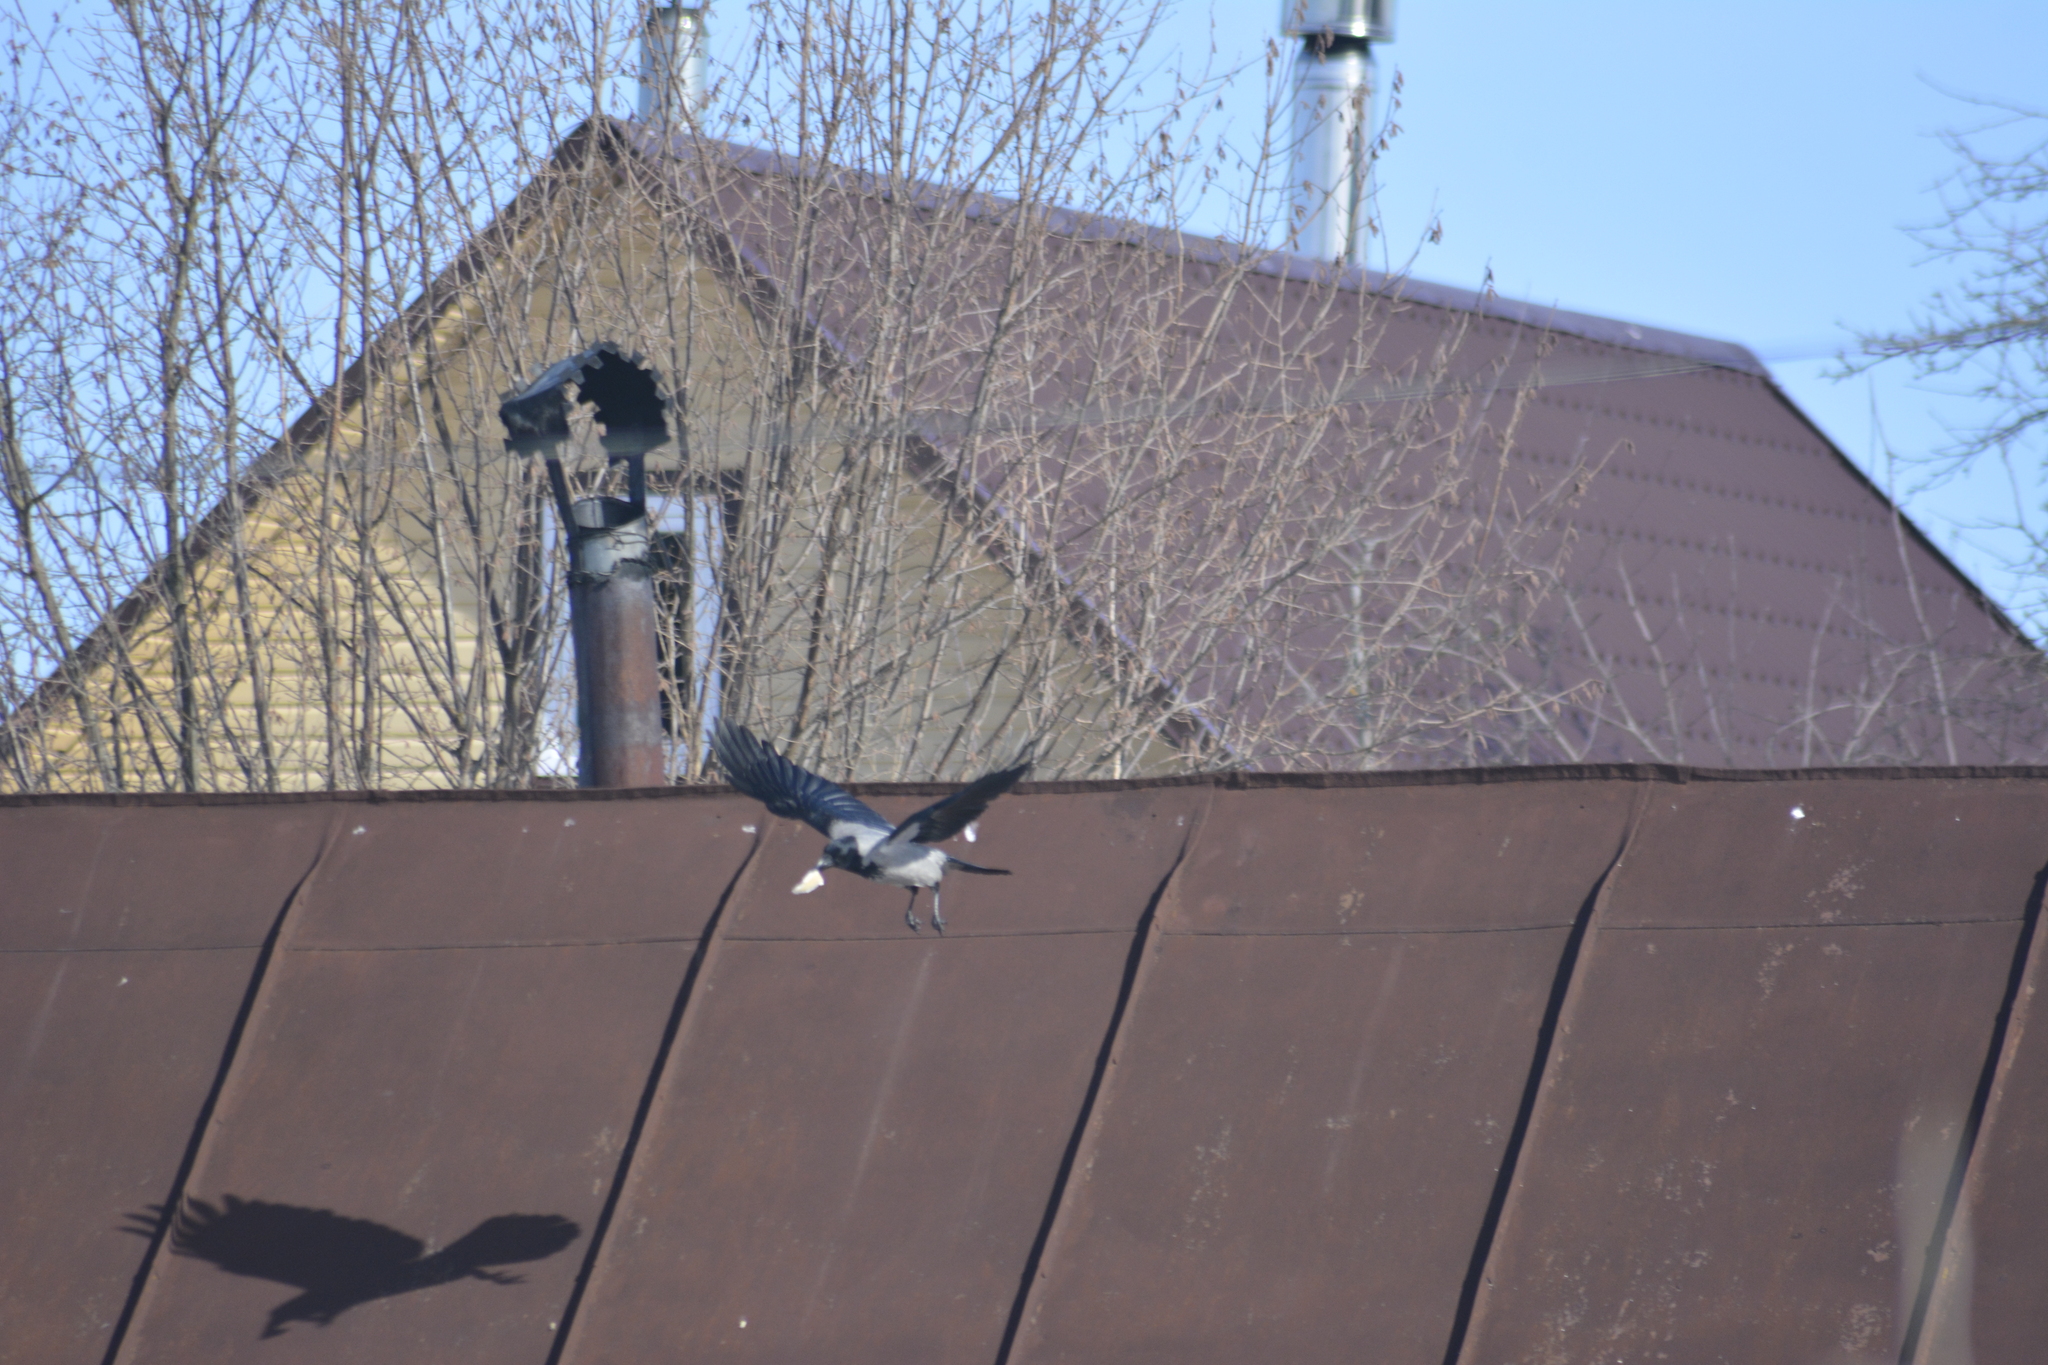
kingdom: Animalia
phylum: Chordata
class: Aves
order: Passeriformes
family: Corvidae
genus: Corvus
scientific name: Corvus cornix
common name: Hooded crow
